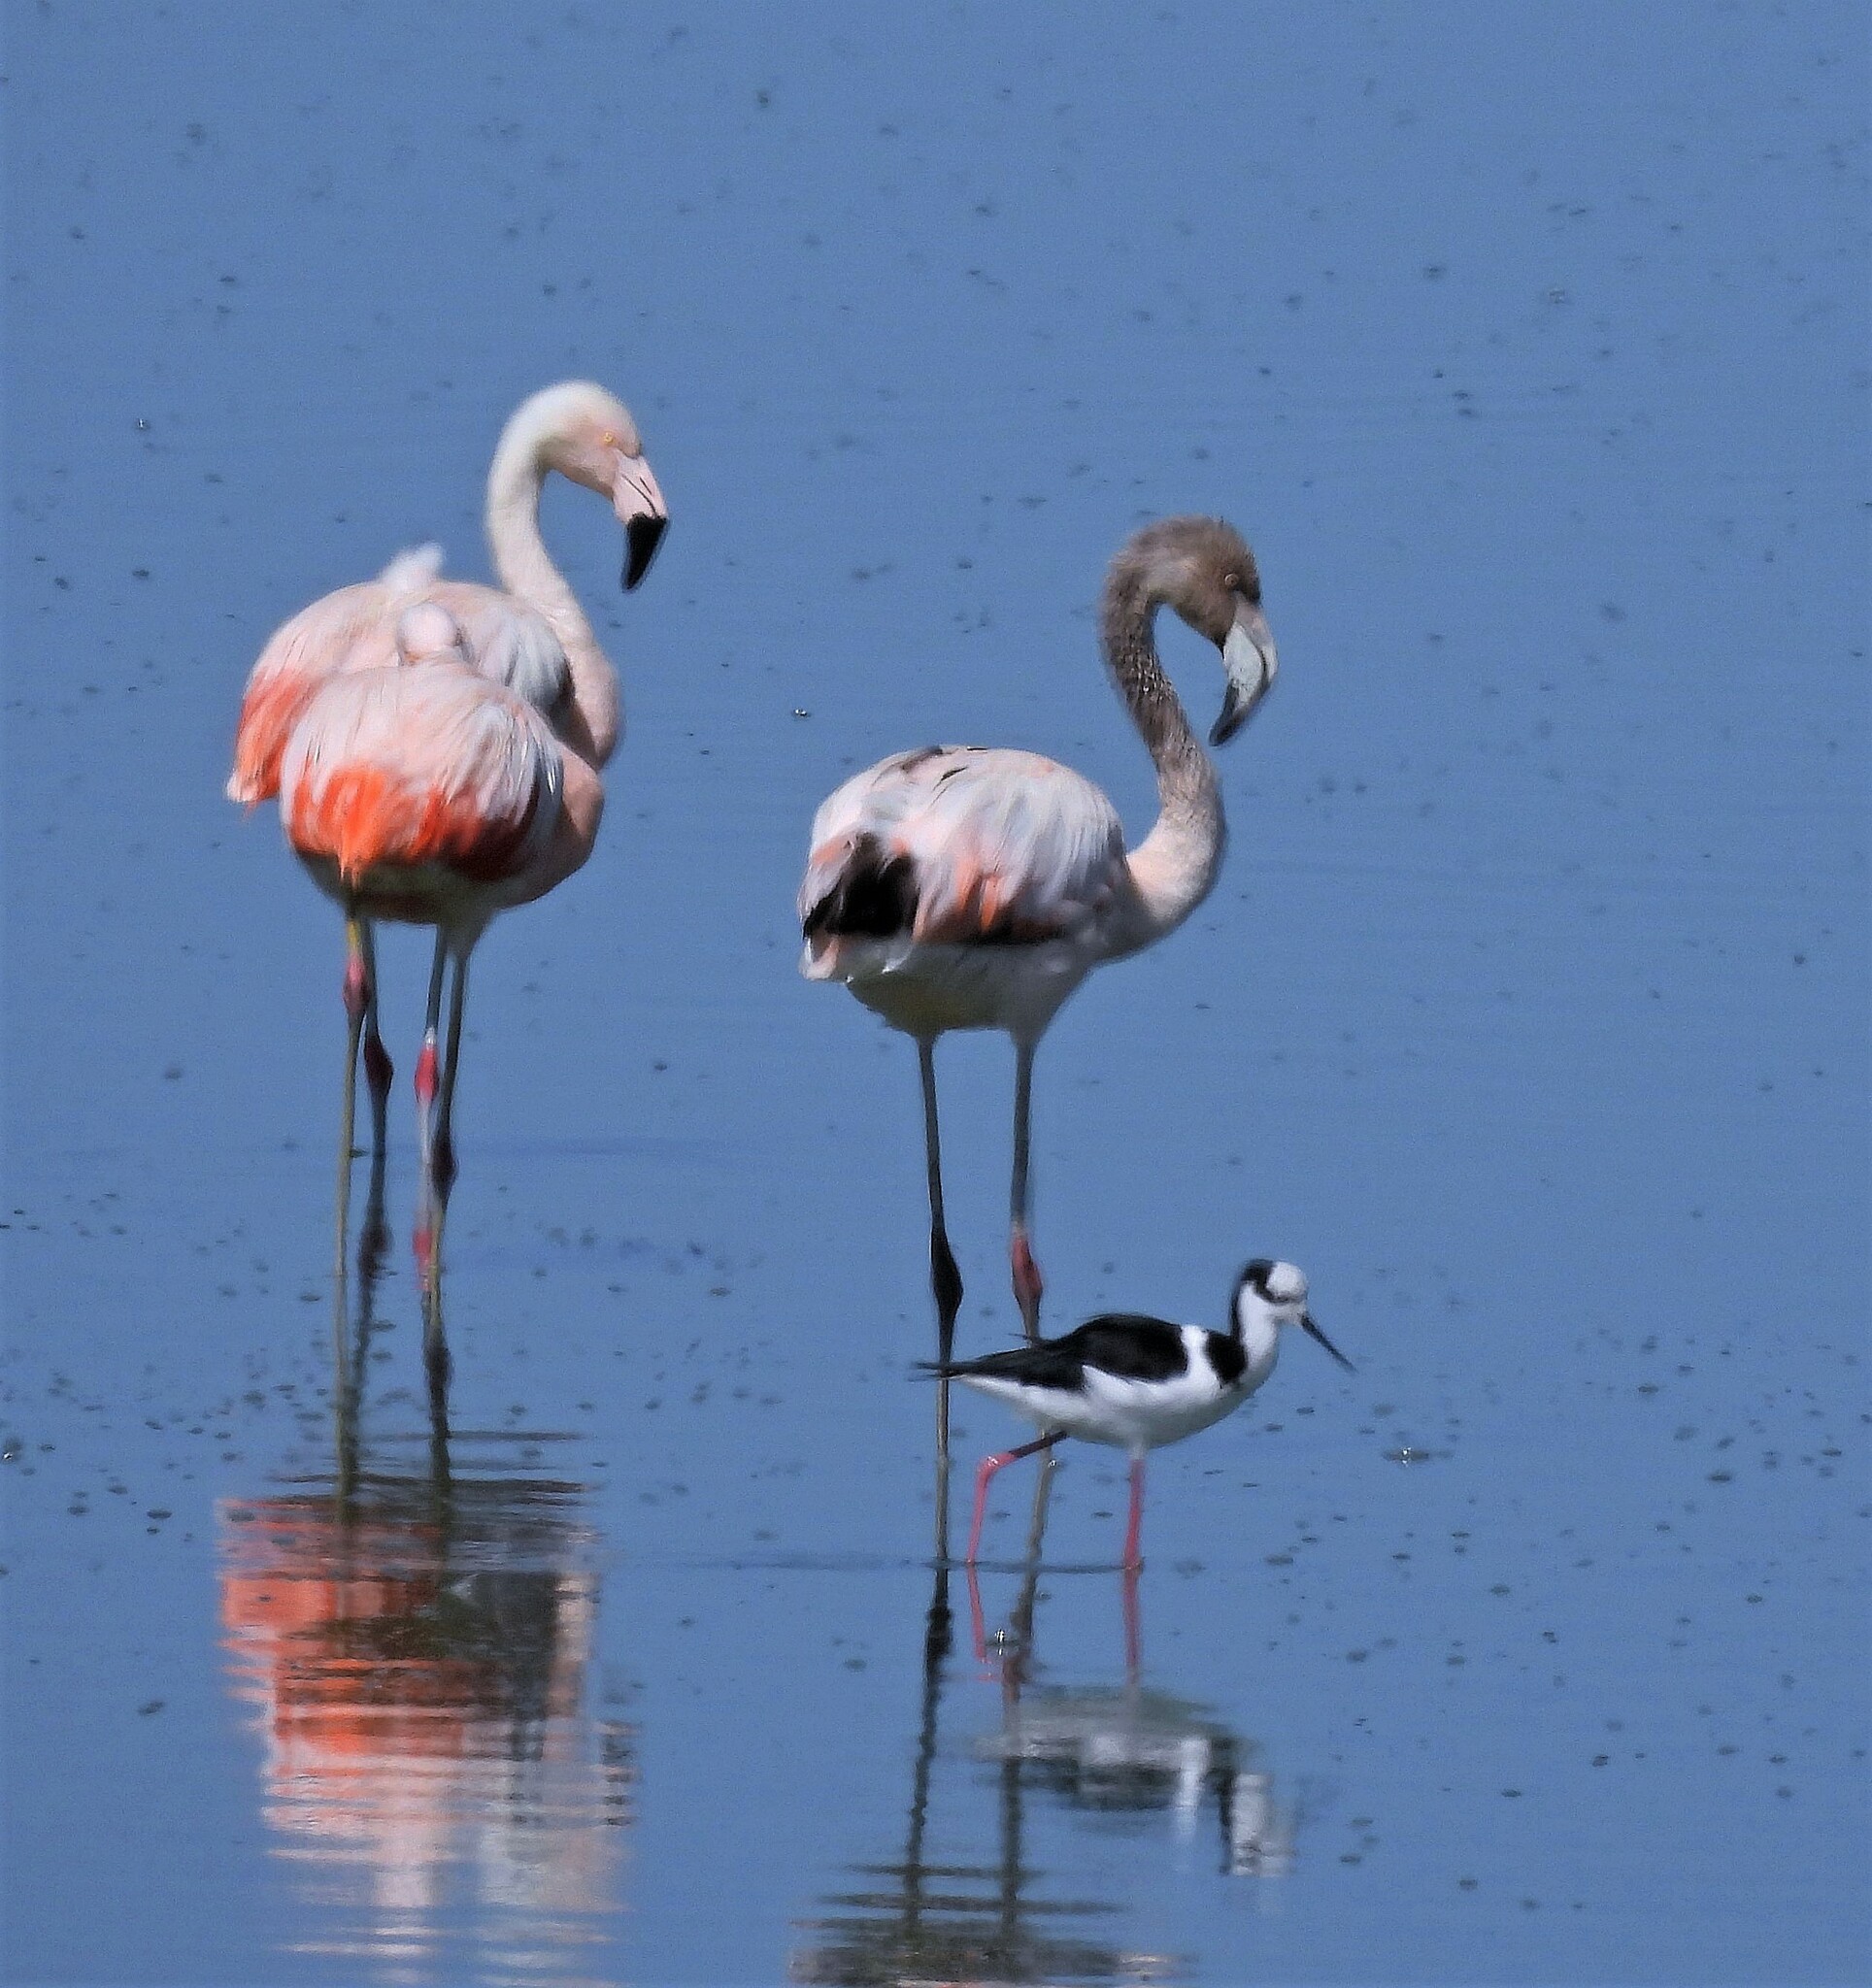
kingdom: Animalia
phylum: Chordata
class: Aves
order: Phoenicopteriformes
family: Phoenicopteridae
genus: Phoenicopterus
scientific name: Phoenicopterus chilensis
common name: Chilean flamingo
